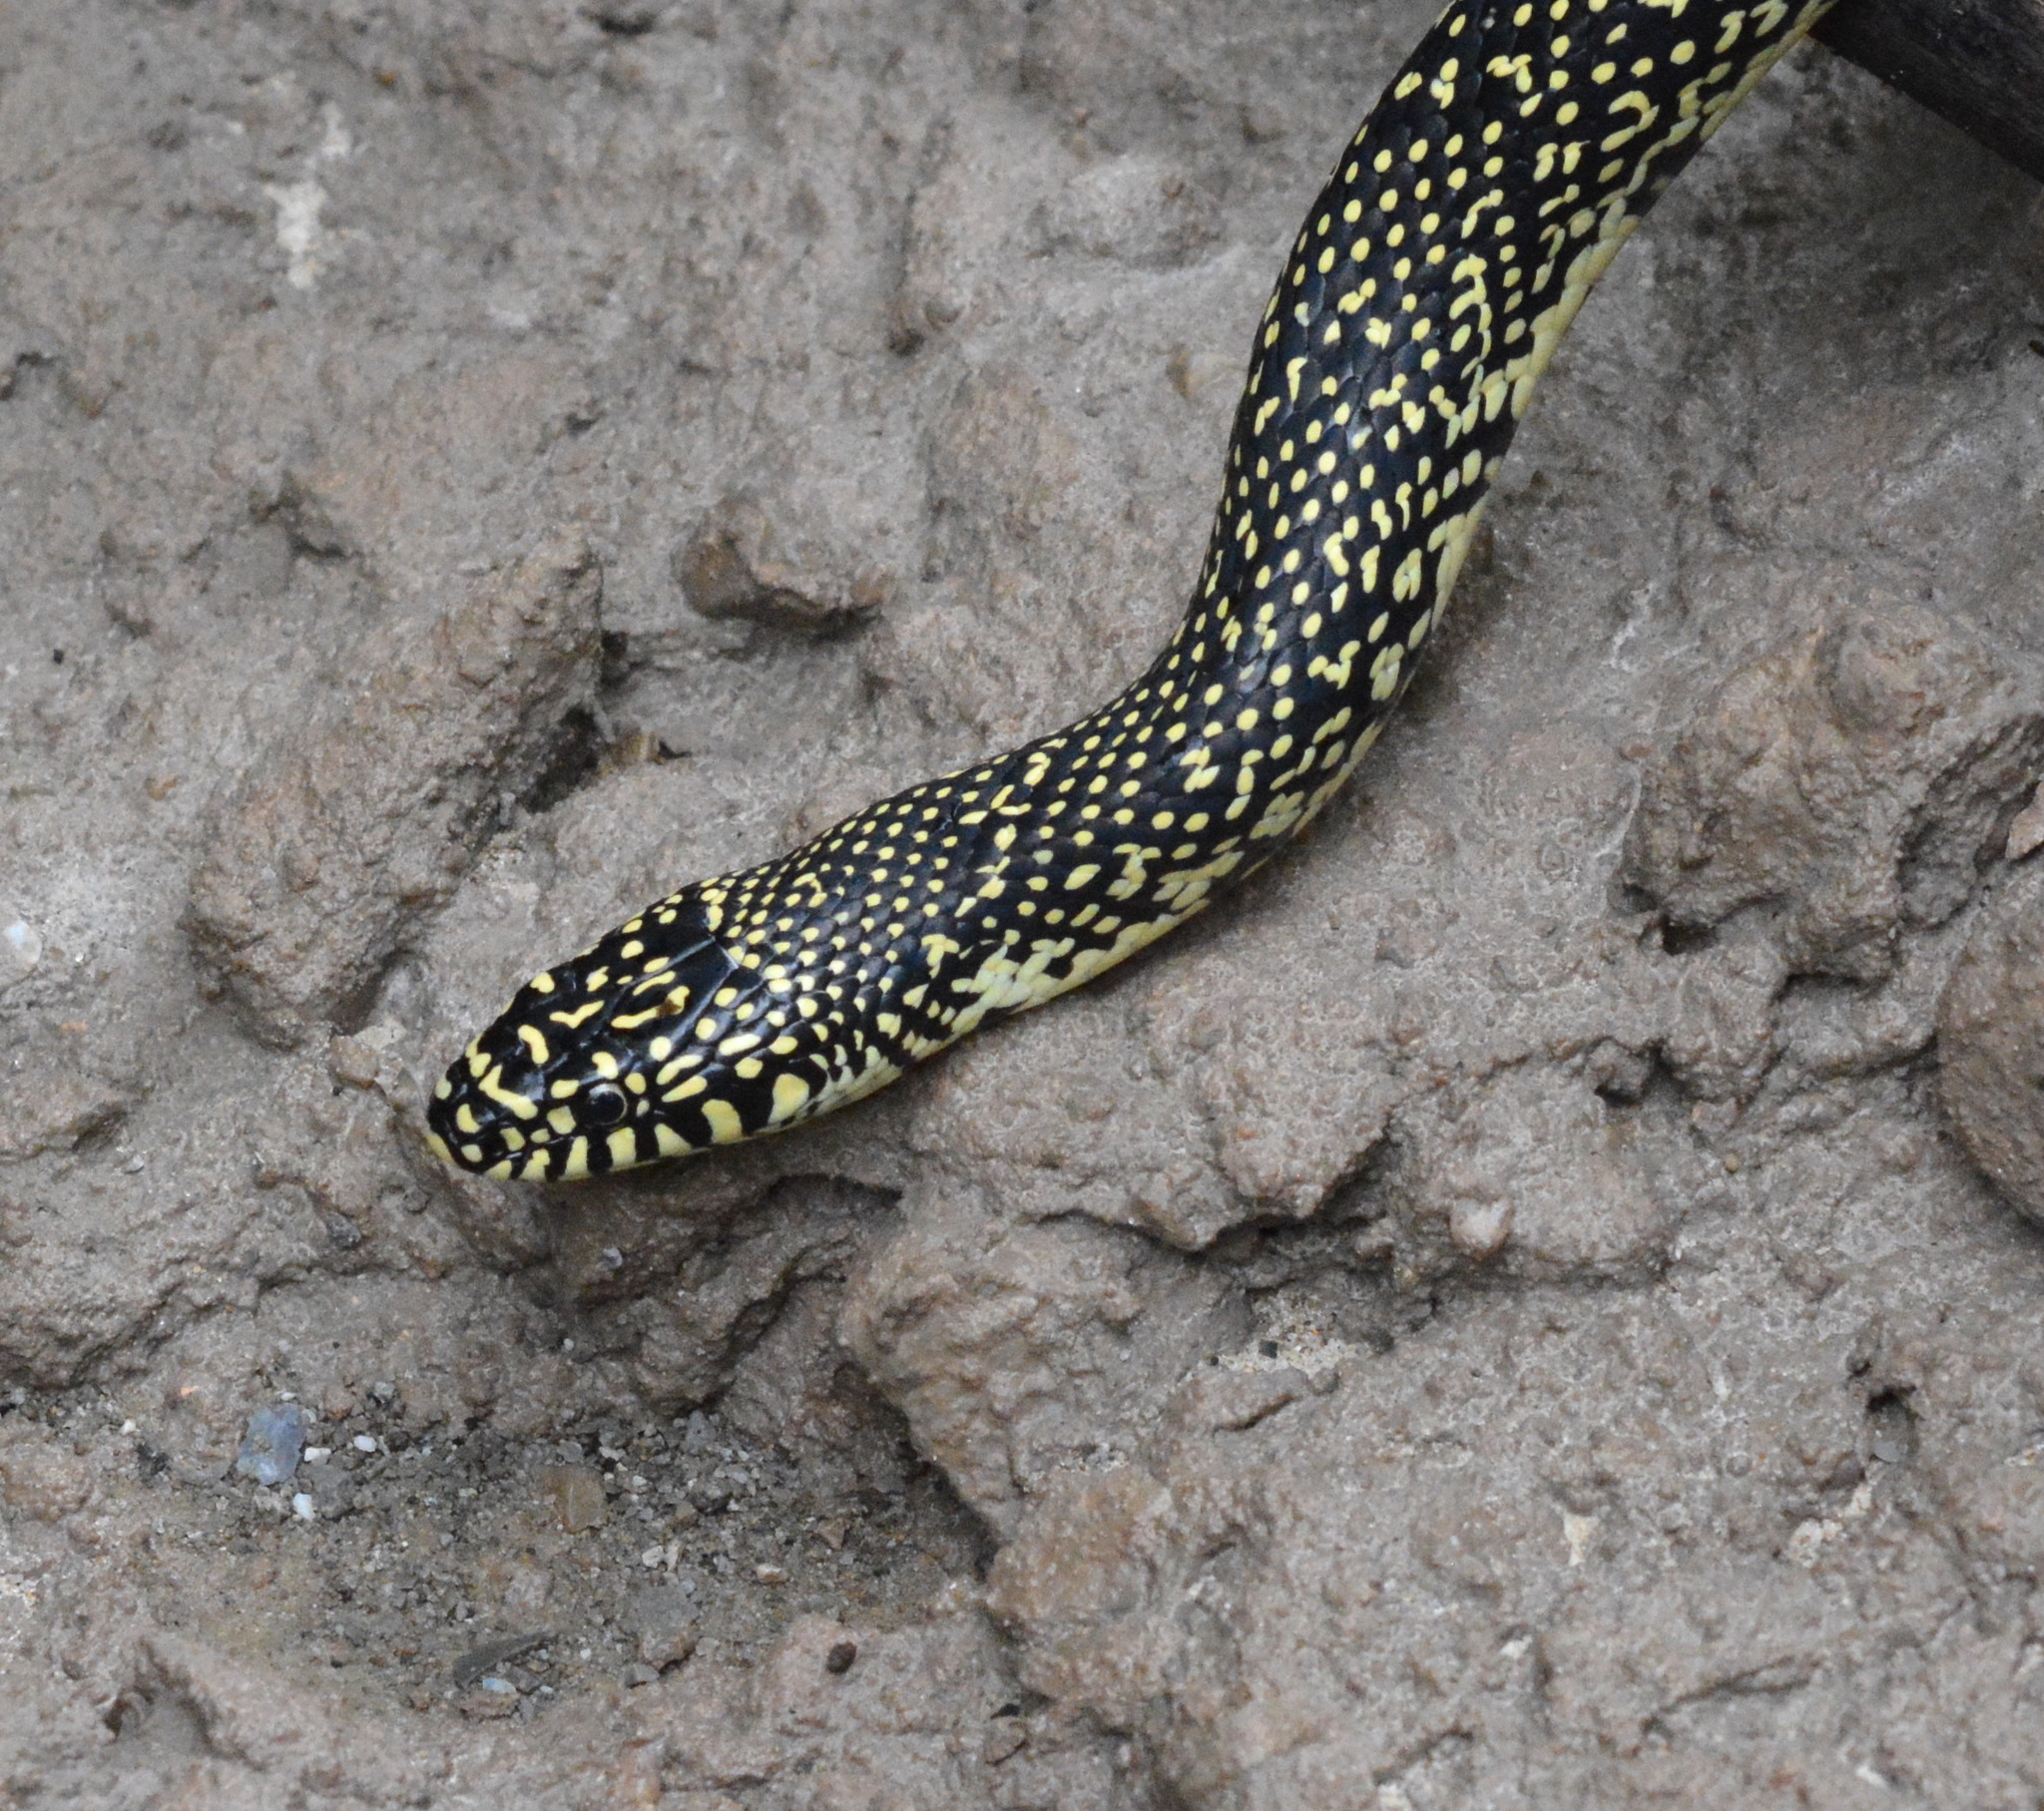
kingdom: Animalia
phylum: Chordata
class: Squamata
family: Colubridae
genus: Lampropeltis
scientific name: Lampropeltis holbrooki
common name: Speckled kingsnake
